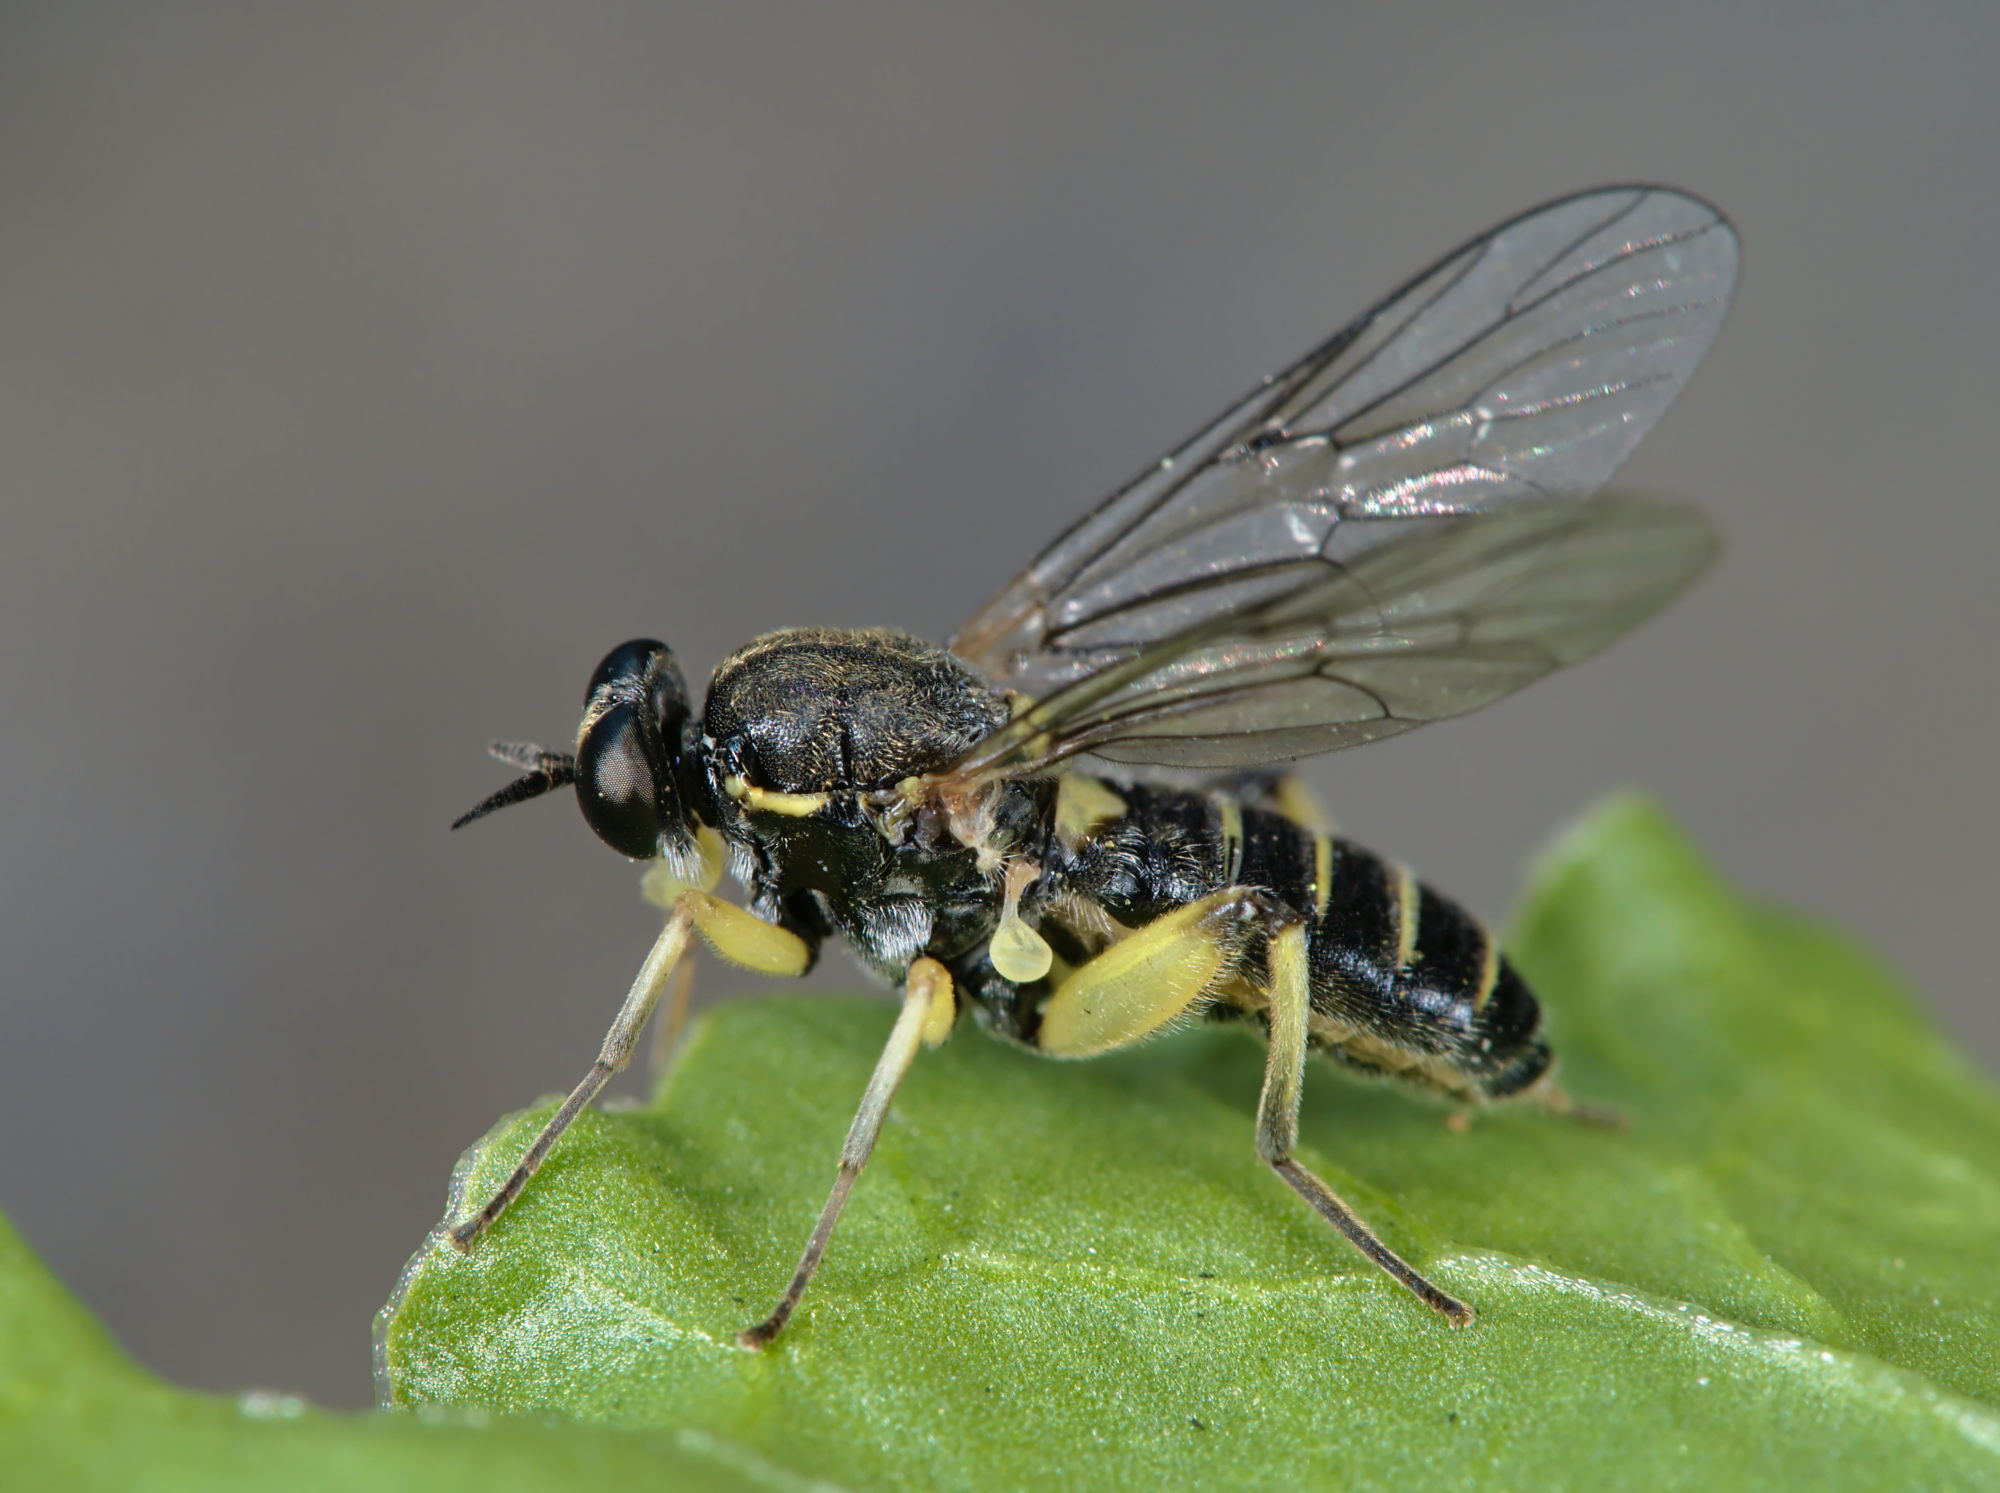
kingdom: Animalia
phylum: Arthropoda
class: Insecta
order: Diptera
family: Xylomyidae
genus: Solva
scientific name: Solva marginata
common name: Drab wood-soldierfly
